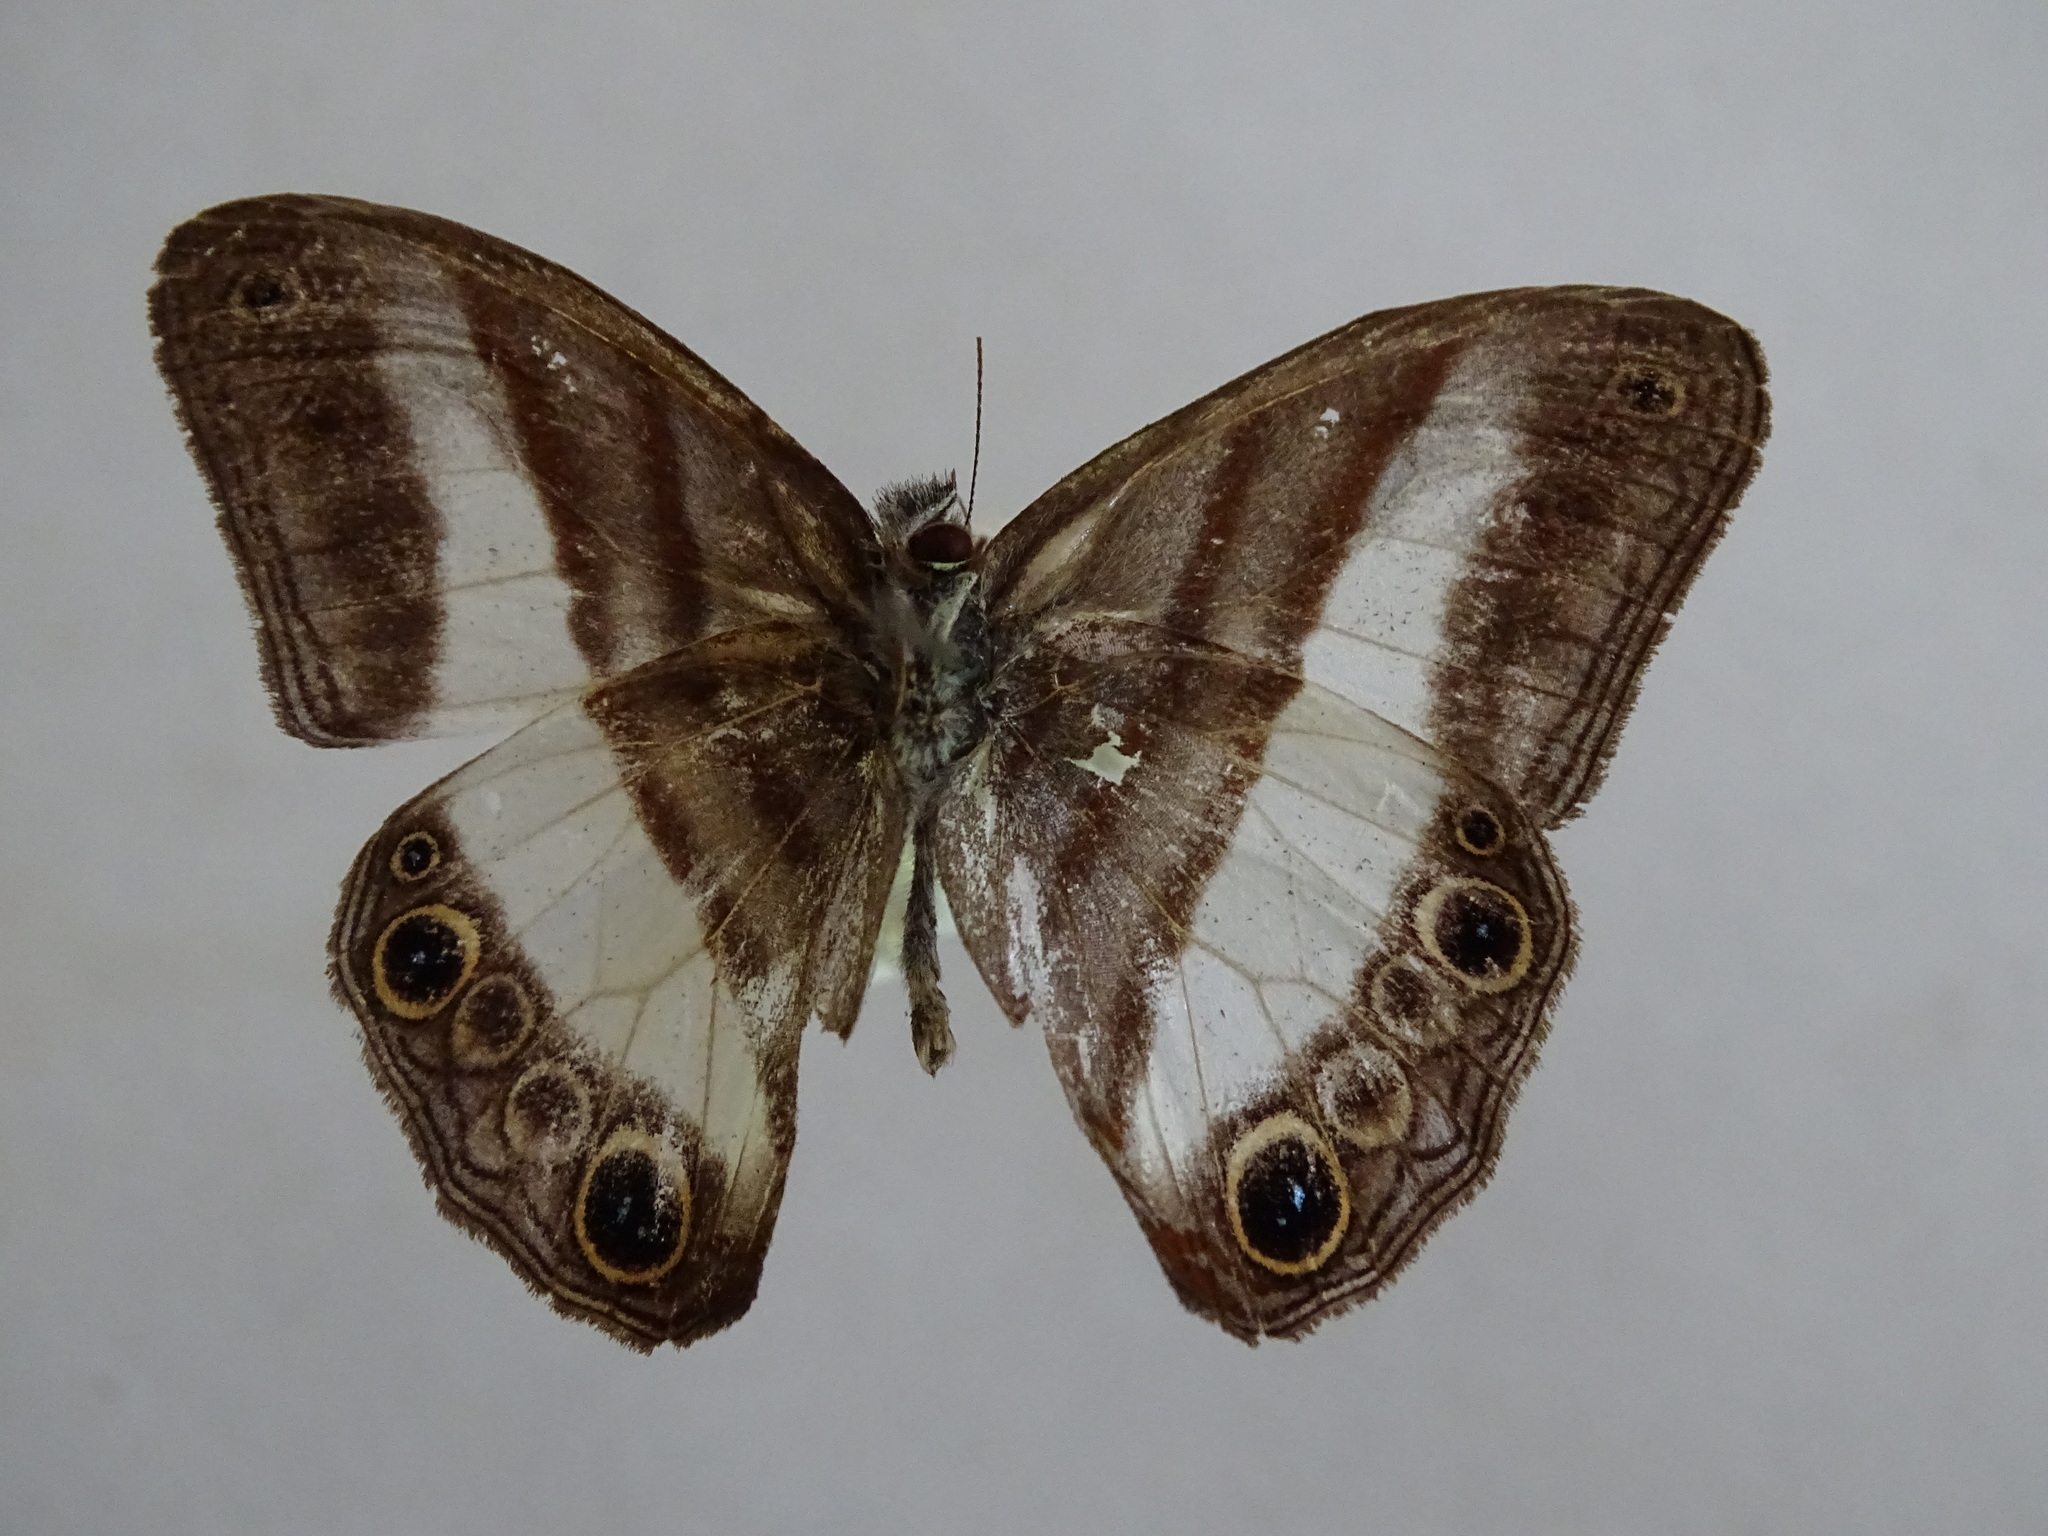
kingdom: Animalia
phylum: Arthropoda
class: Insecta
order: Lepidoptera
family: Nymphalidae
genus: Pareuptychia
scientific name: Pareuptychia metaleuca
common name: White-banded satyr
